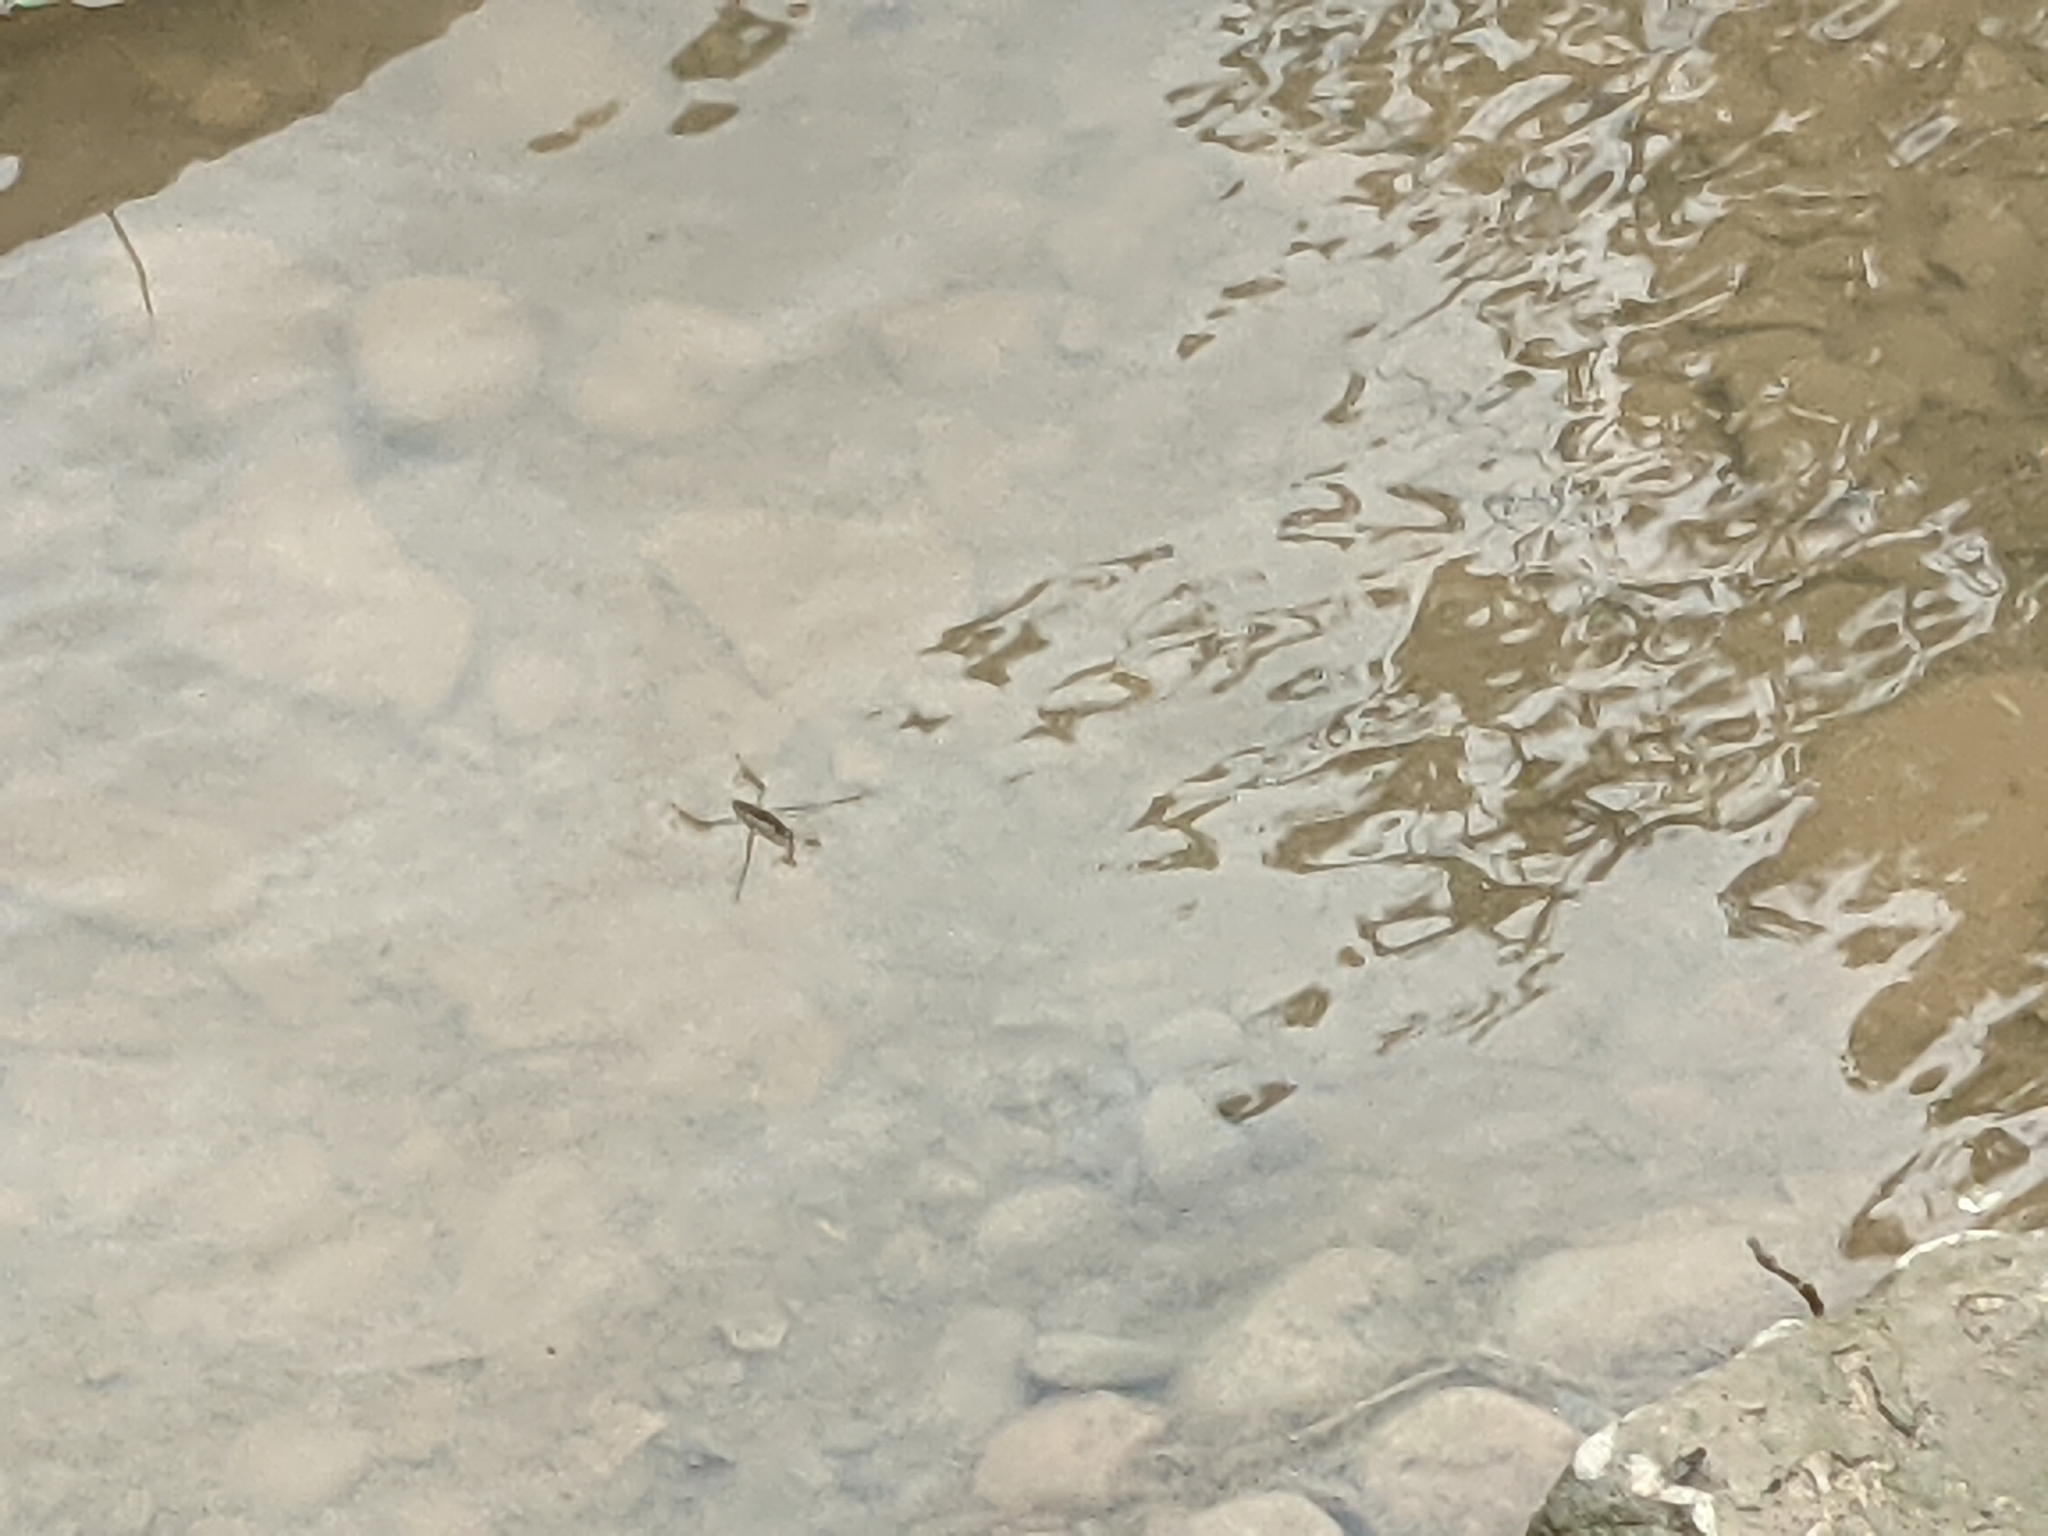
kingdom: Animalia
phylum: Arthropoda
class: Insecta
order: Hemiptera
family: Gerridae
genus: Aquarius
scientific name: Aquarius
